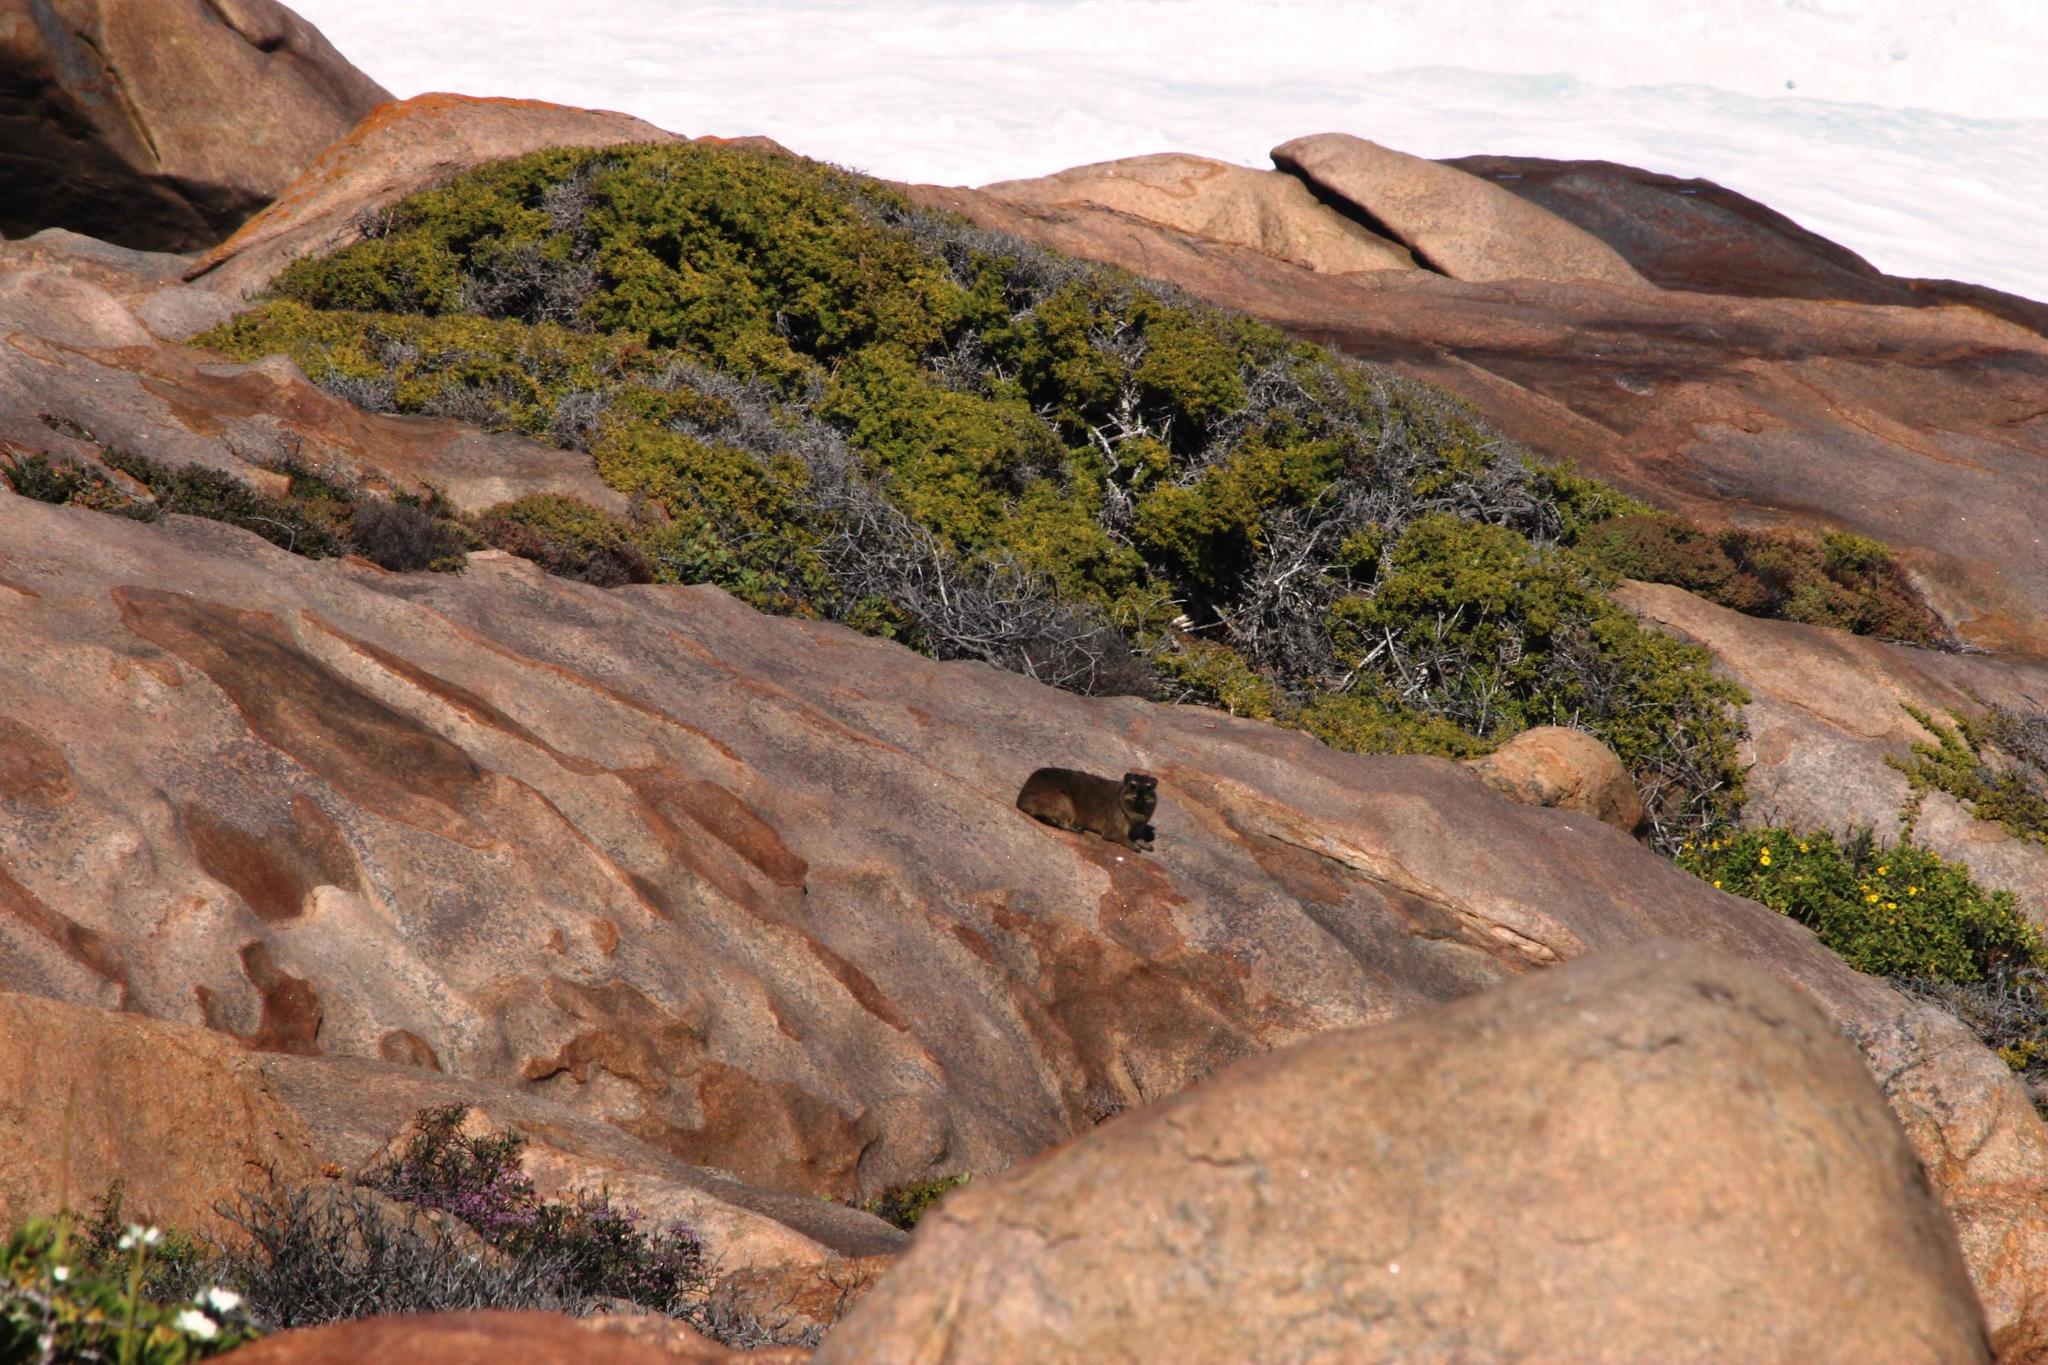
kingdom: Animalia
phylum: Chordata
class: Mammalia
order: Hyracoidea
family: Procaviidae
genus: Procavia
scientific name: Procavia capensis
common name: Rock hyrax
